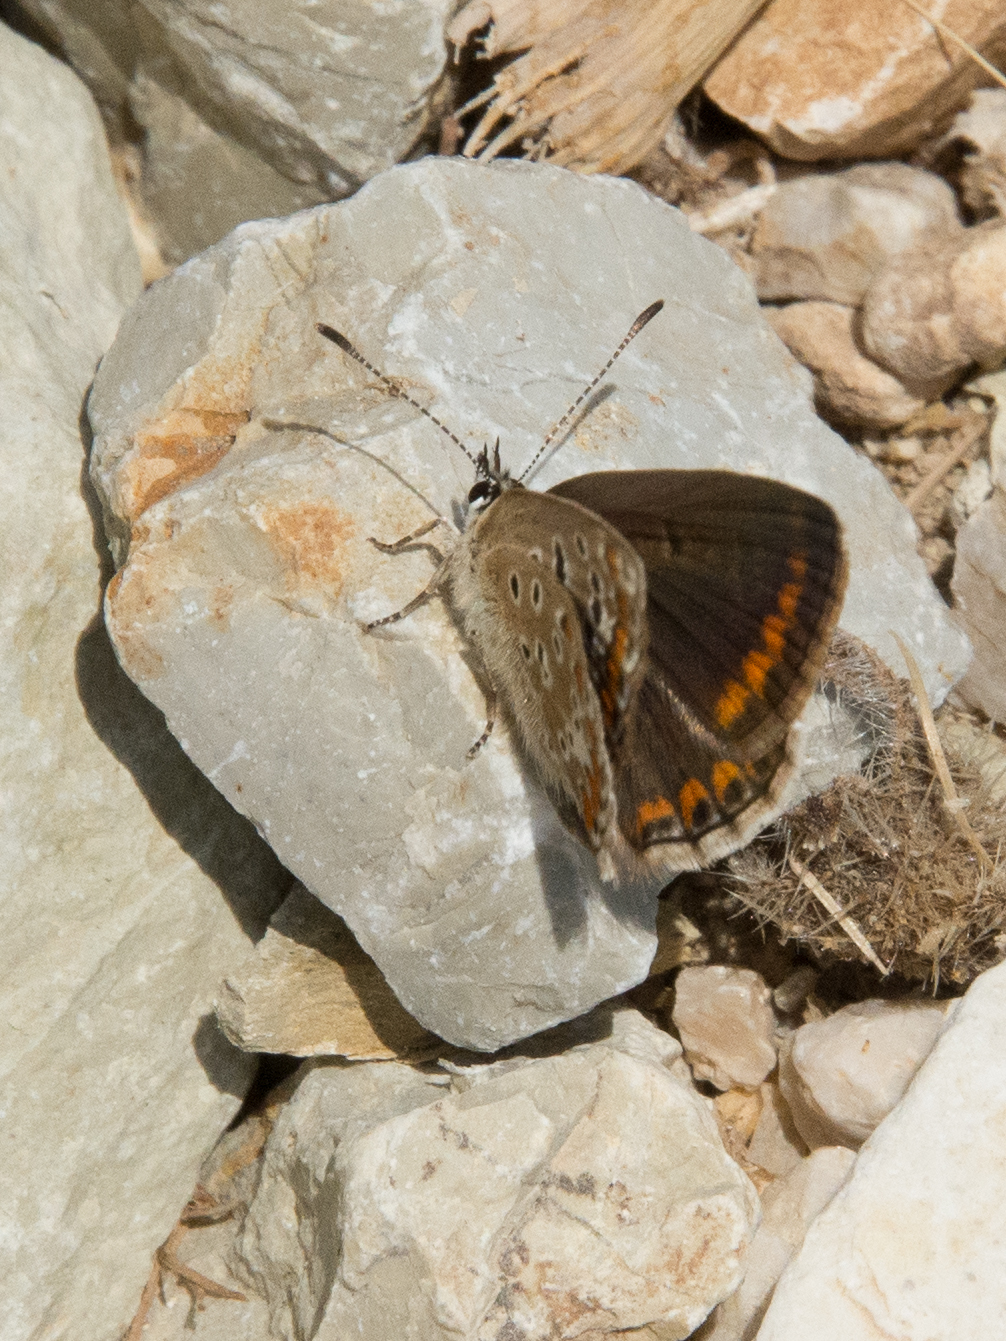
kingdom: Animalia
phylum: Arthropoda
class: Insecta
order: Lepidoptera
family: Lycaenidae
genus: Polyommatus
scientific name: Polyommatus celina
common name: Austaut's blue
